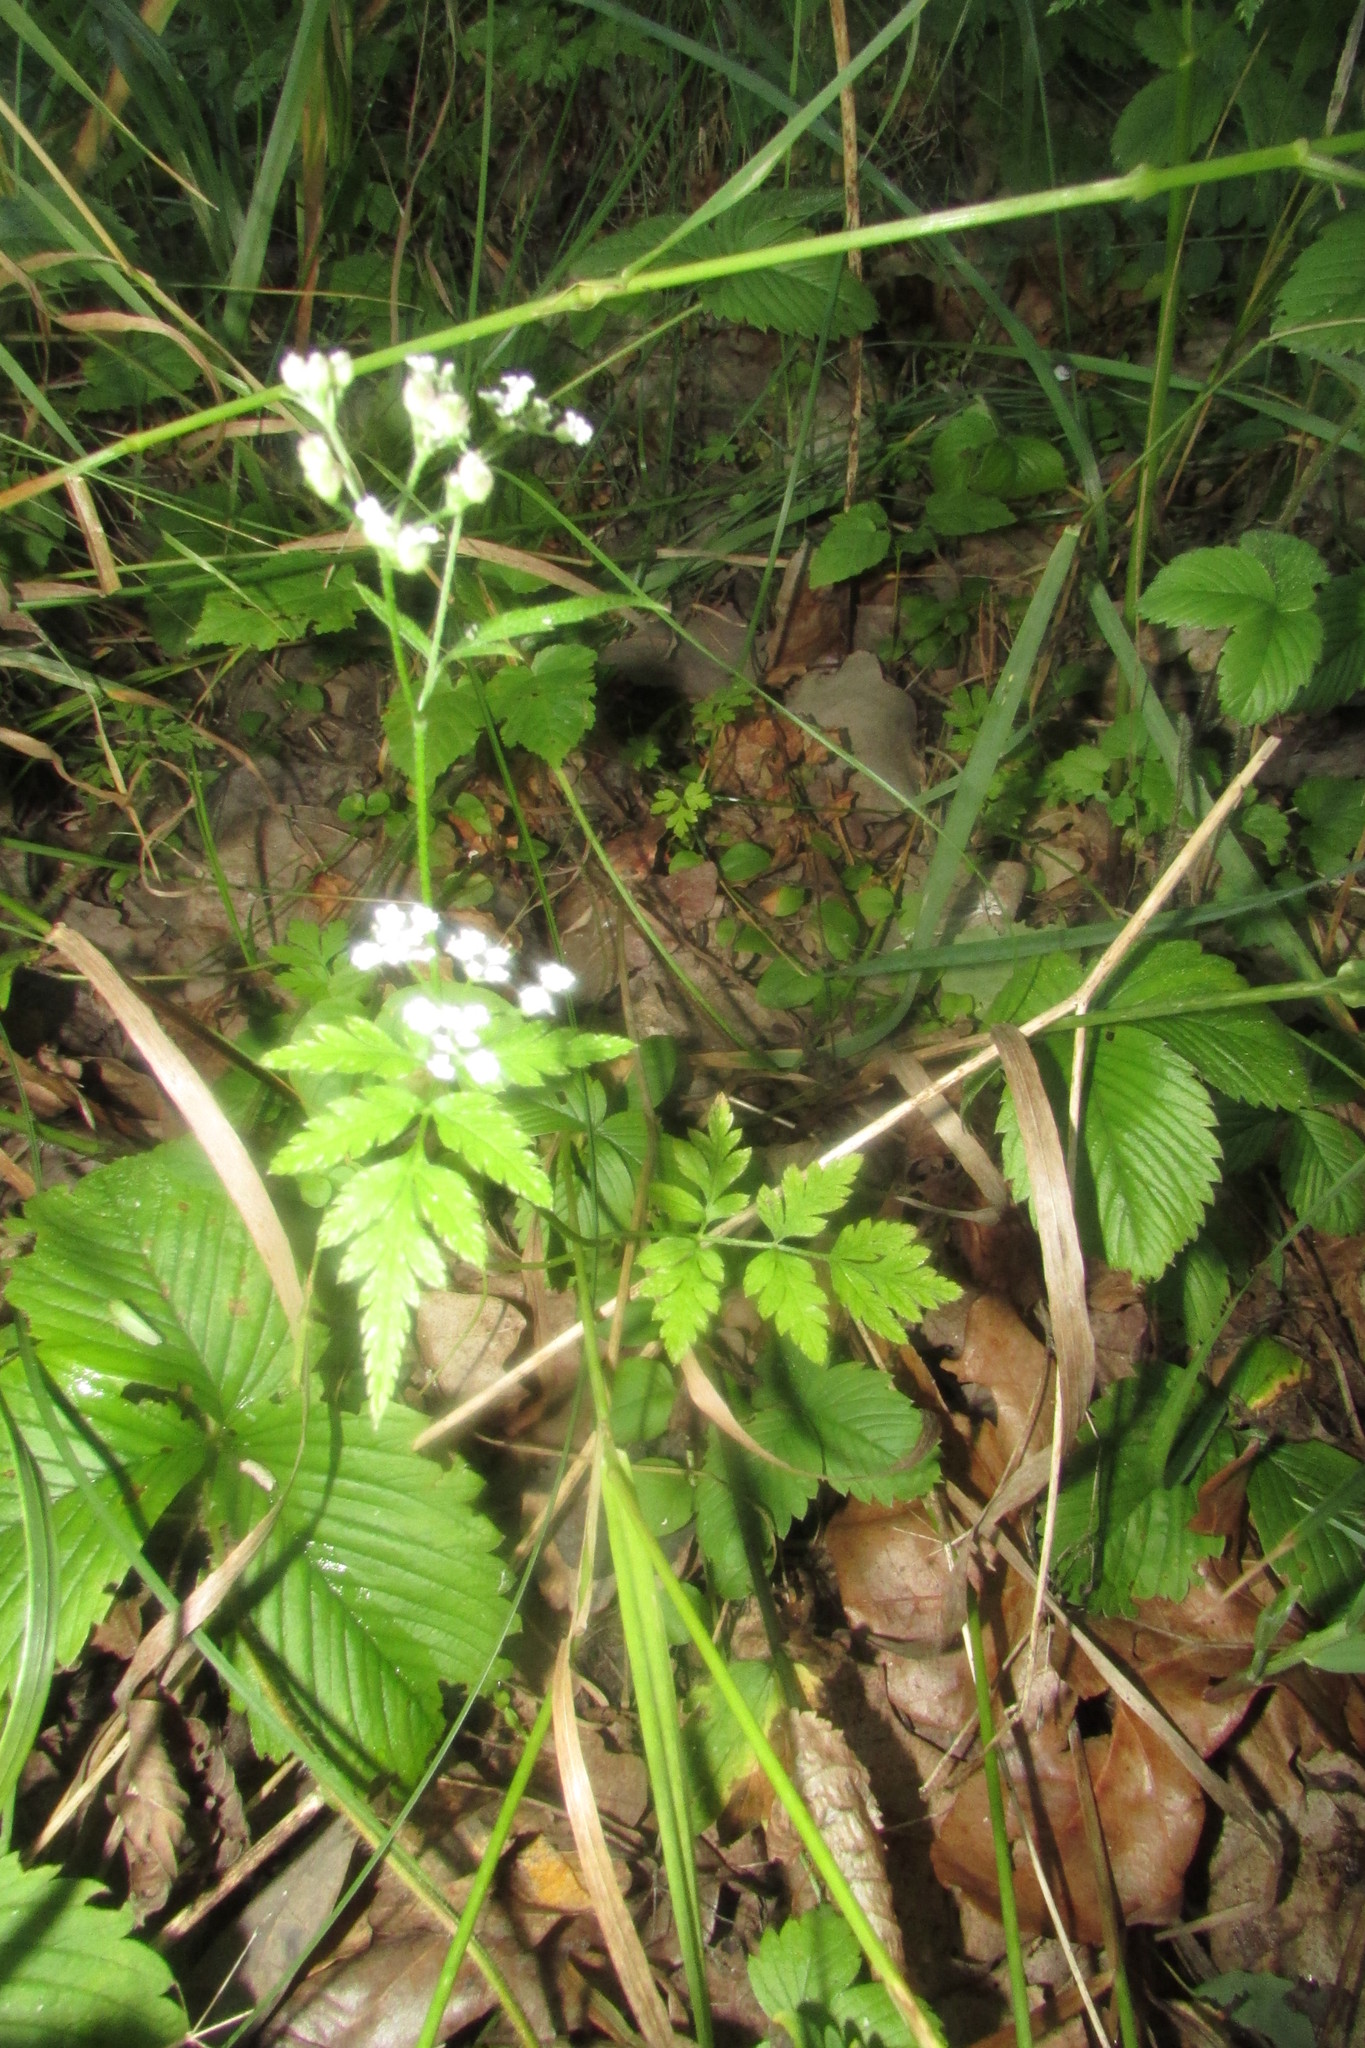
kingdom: Plantae
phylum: Tracheophyta
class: Magnoliopsida
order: Apiales
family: Apiaceae
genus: Torilis
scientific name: Torilis japonica
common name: Upright hedge-parsley
